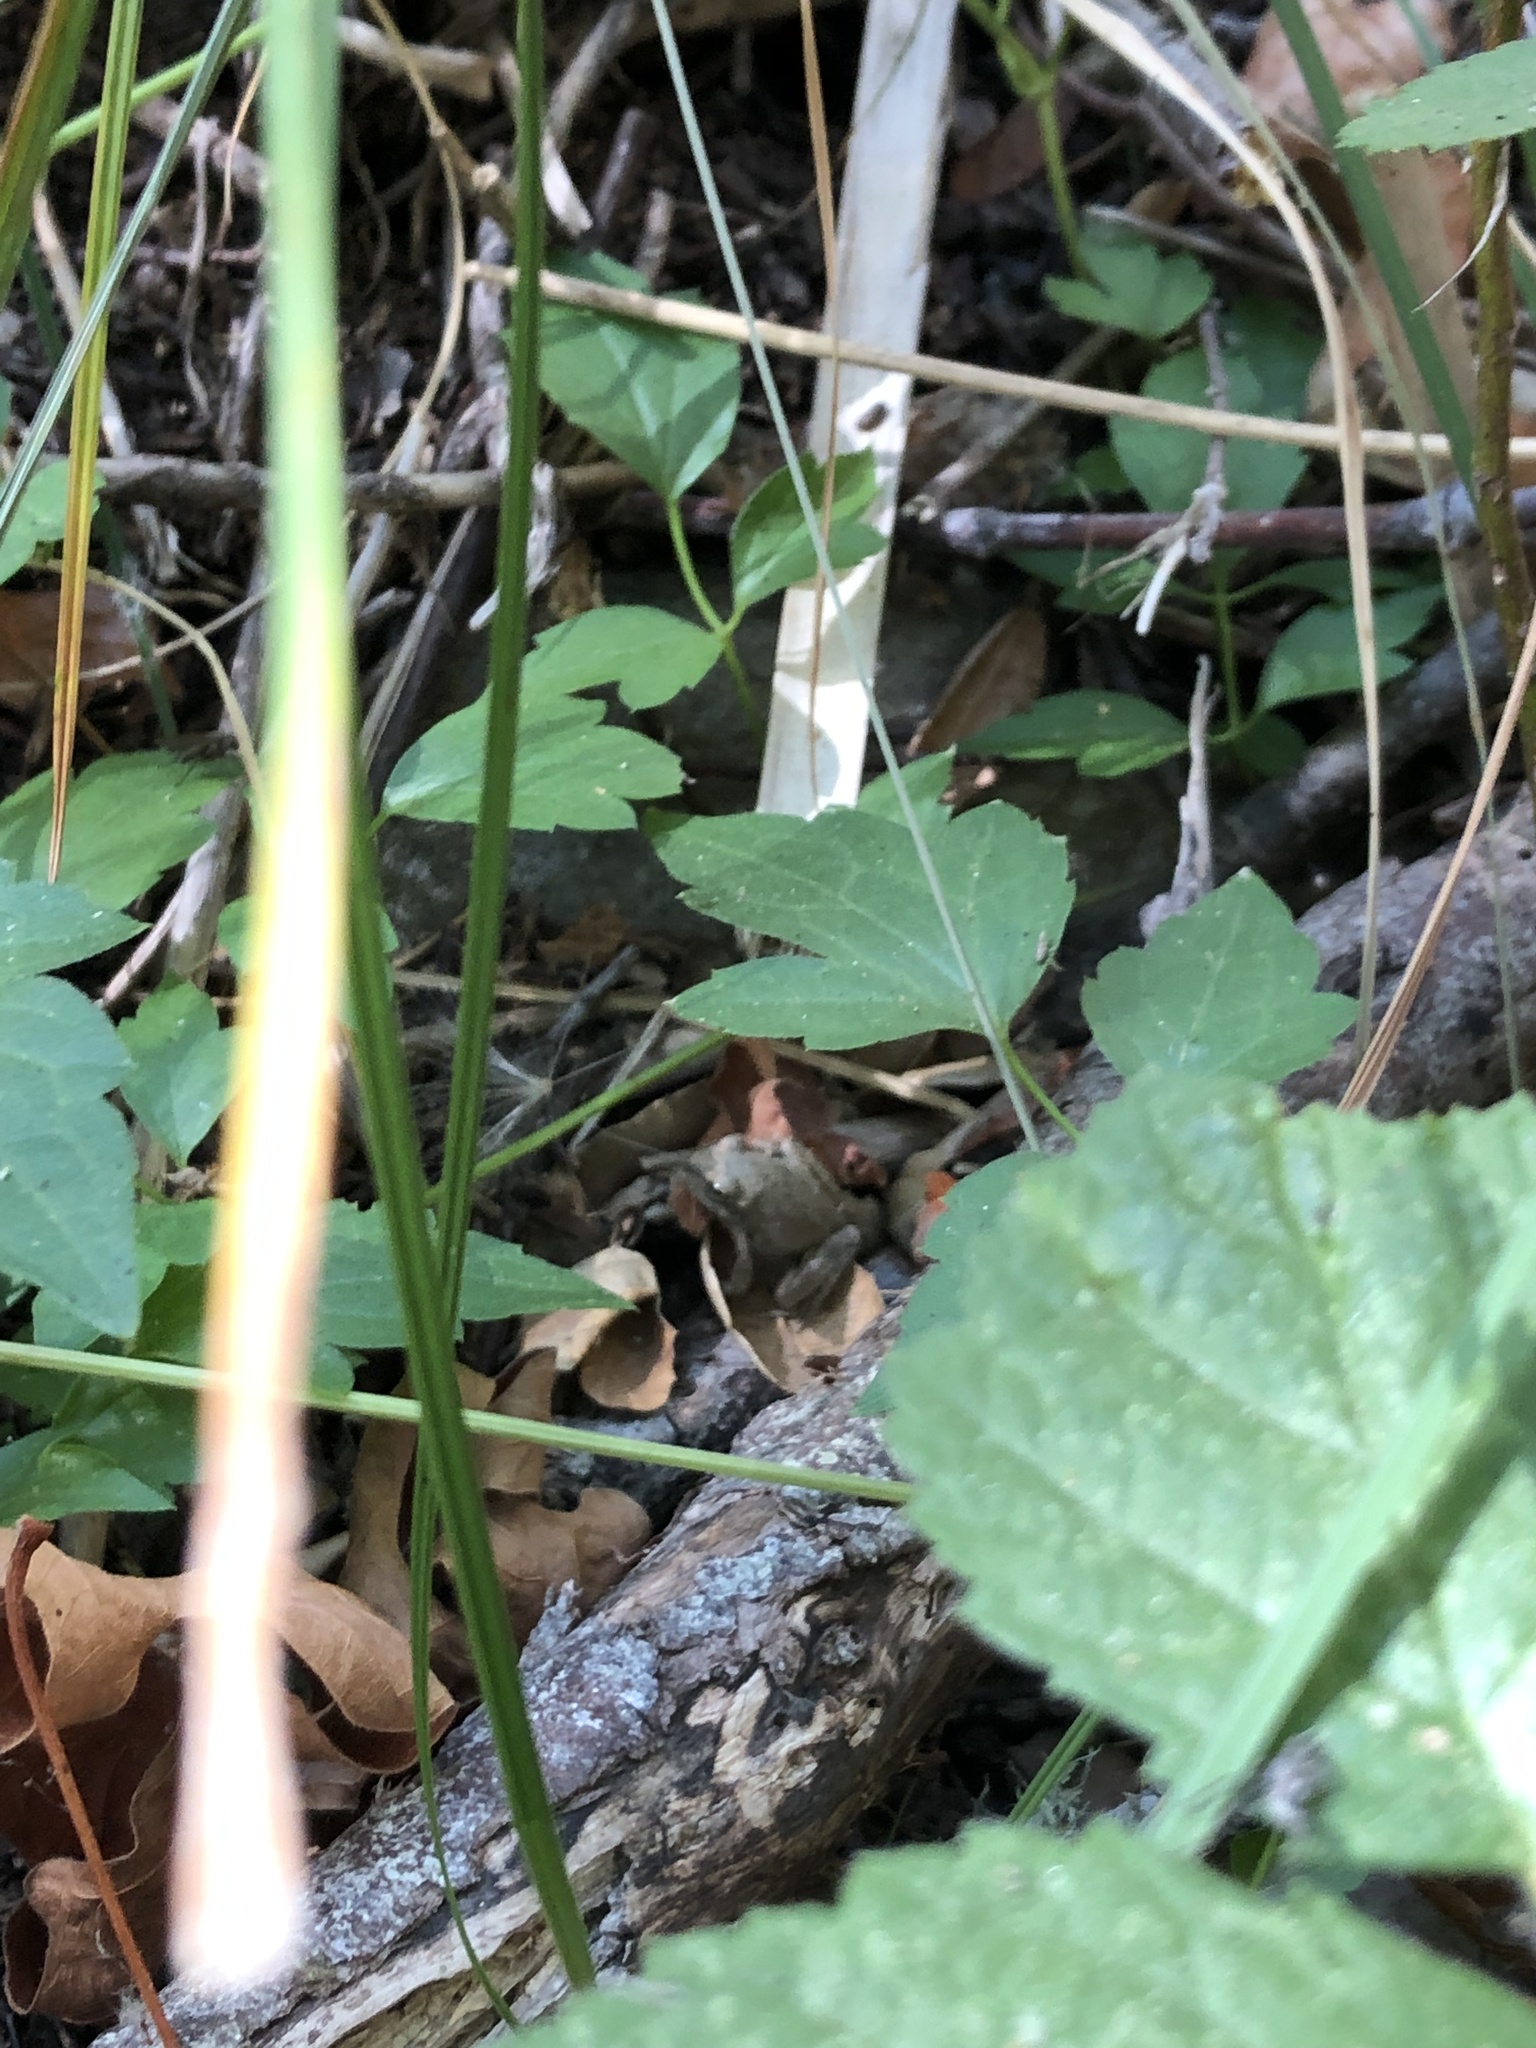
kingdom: Animalia
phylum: Chordata
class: Amphibia
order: Anura
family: Hylidae
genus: Pseudacris
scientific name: Pseudacris regilla
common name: Pacific chorus frog
